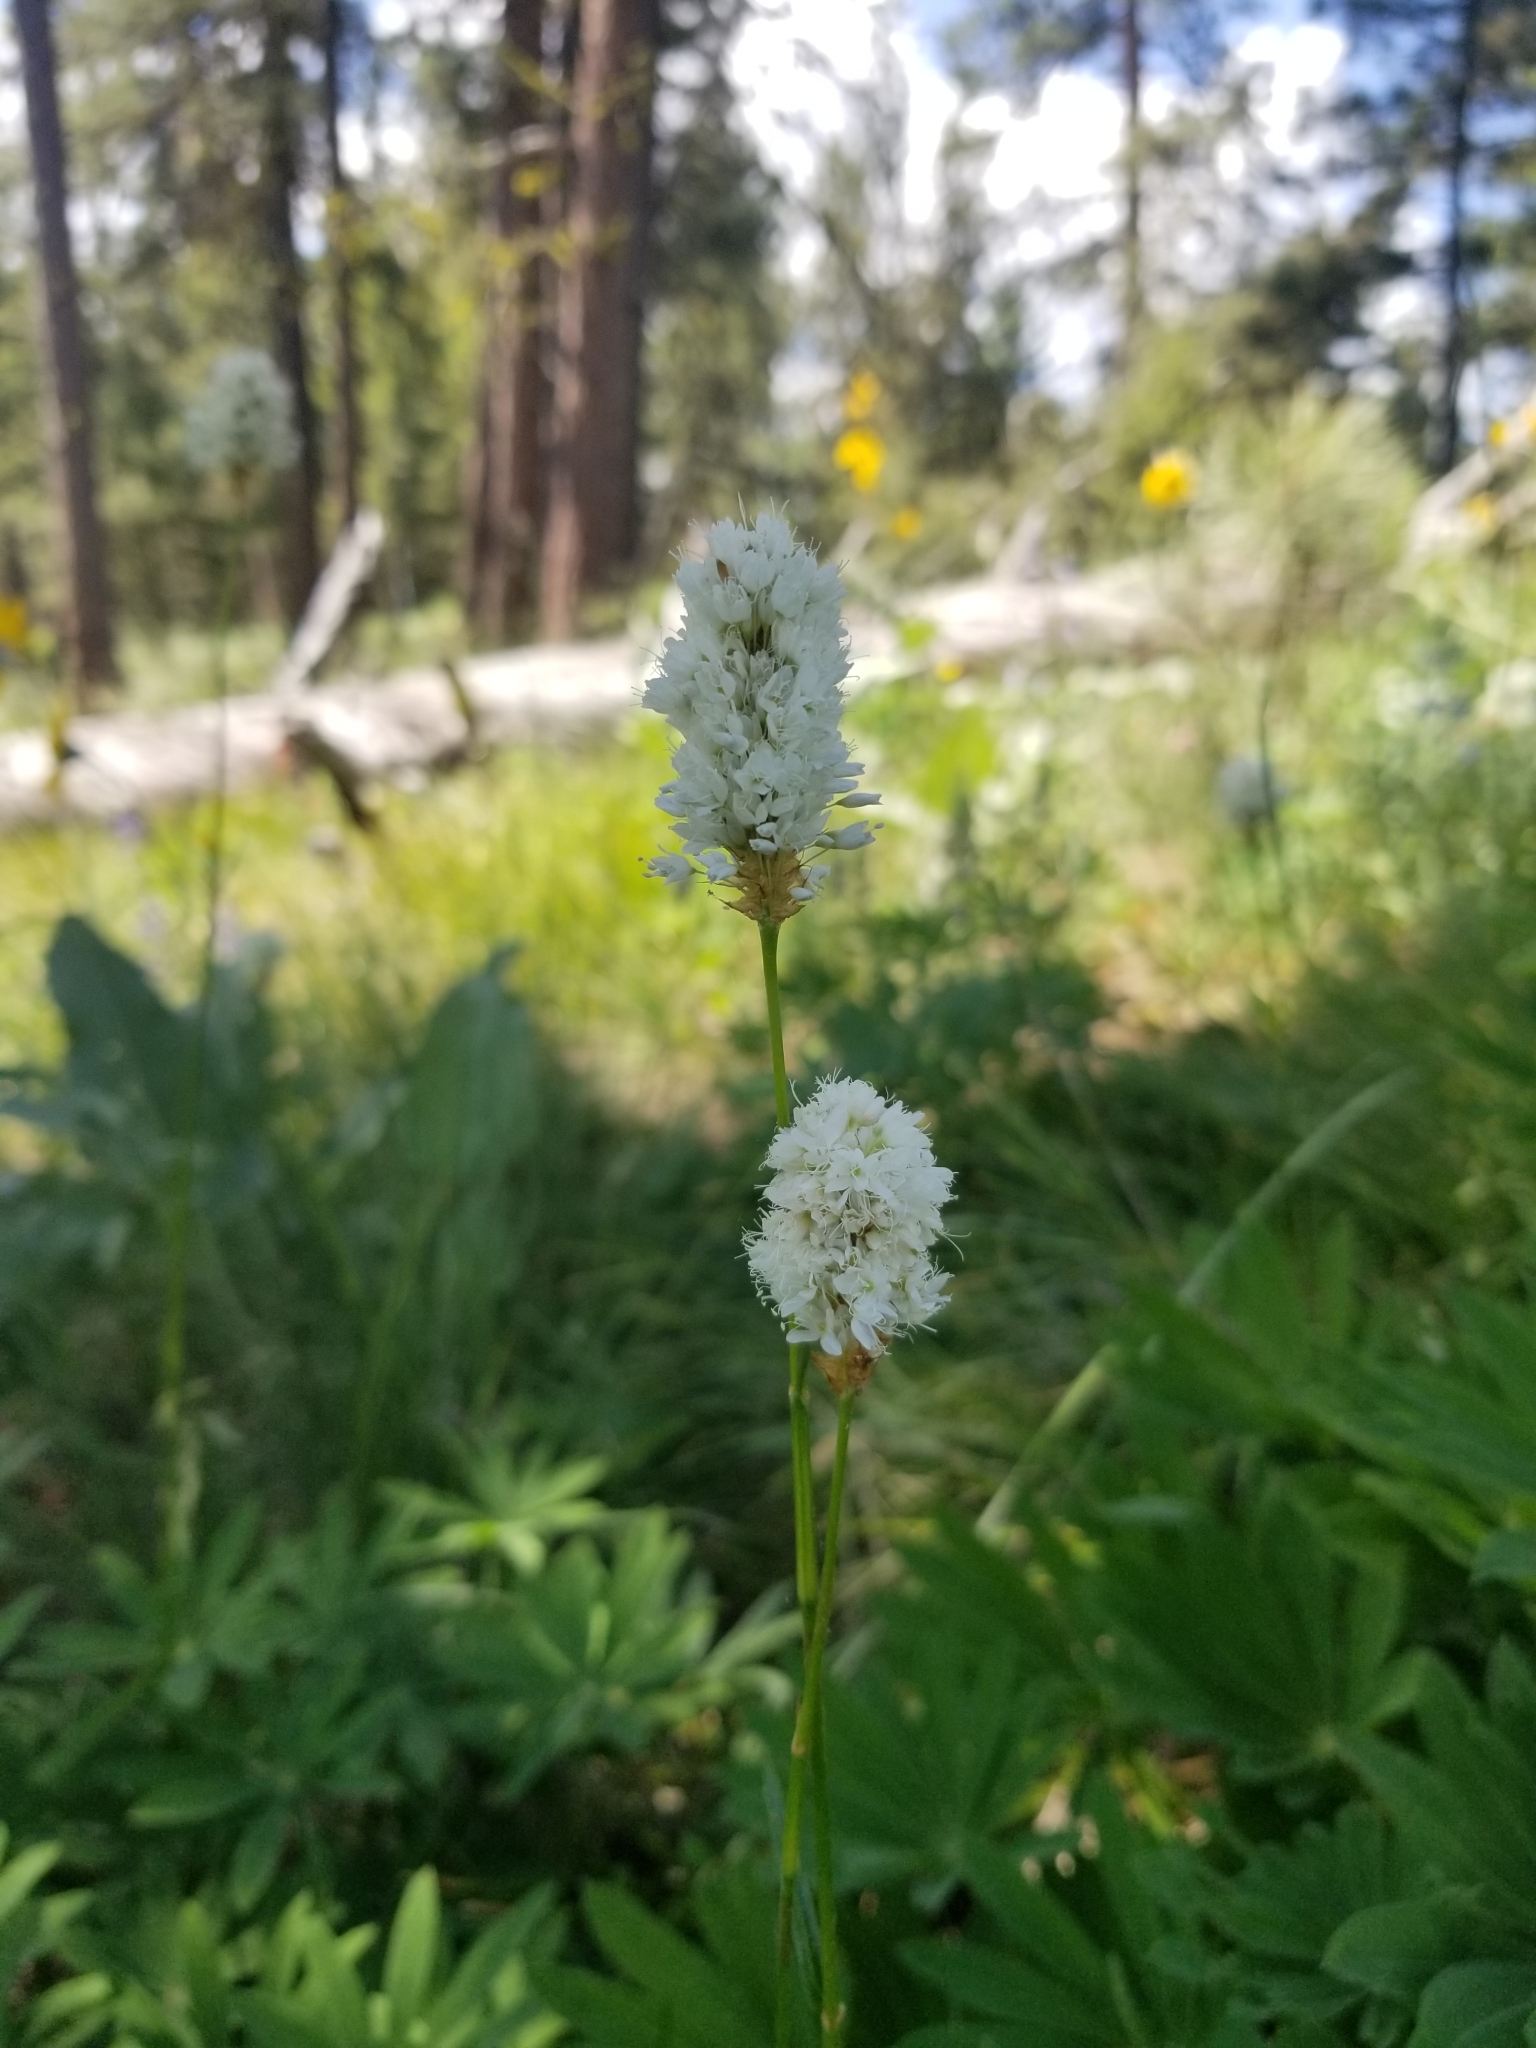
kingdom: Plantae
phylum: Tracheophyta
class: Magnoliopsida
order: Caryophyllales
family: Polygonaceae
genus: Bistorta
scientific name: Bistorta bistortoides
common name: American bistort
